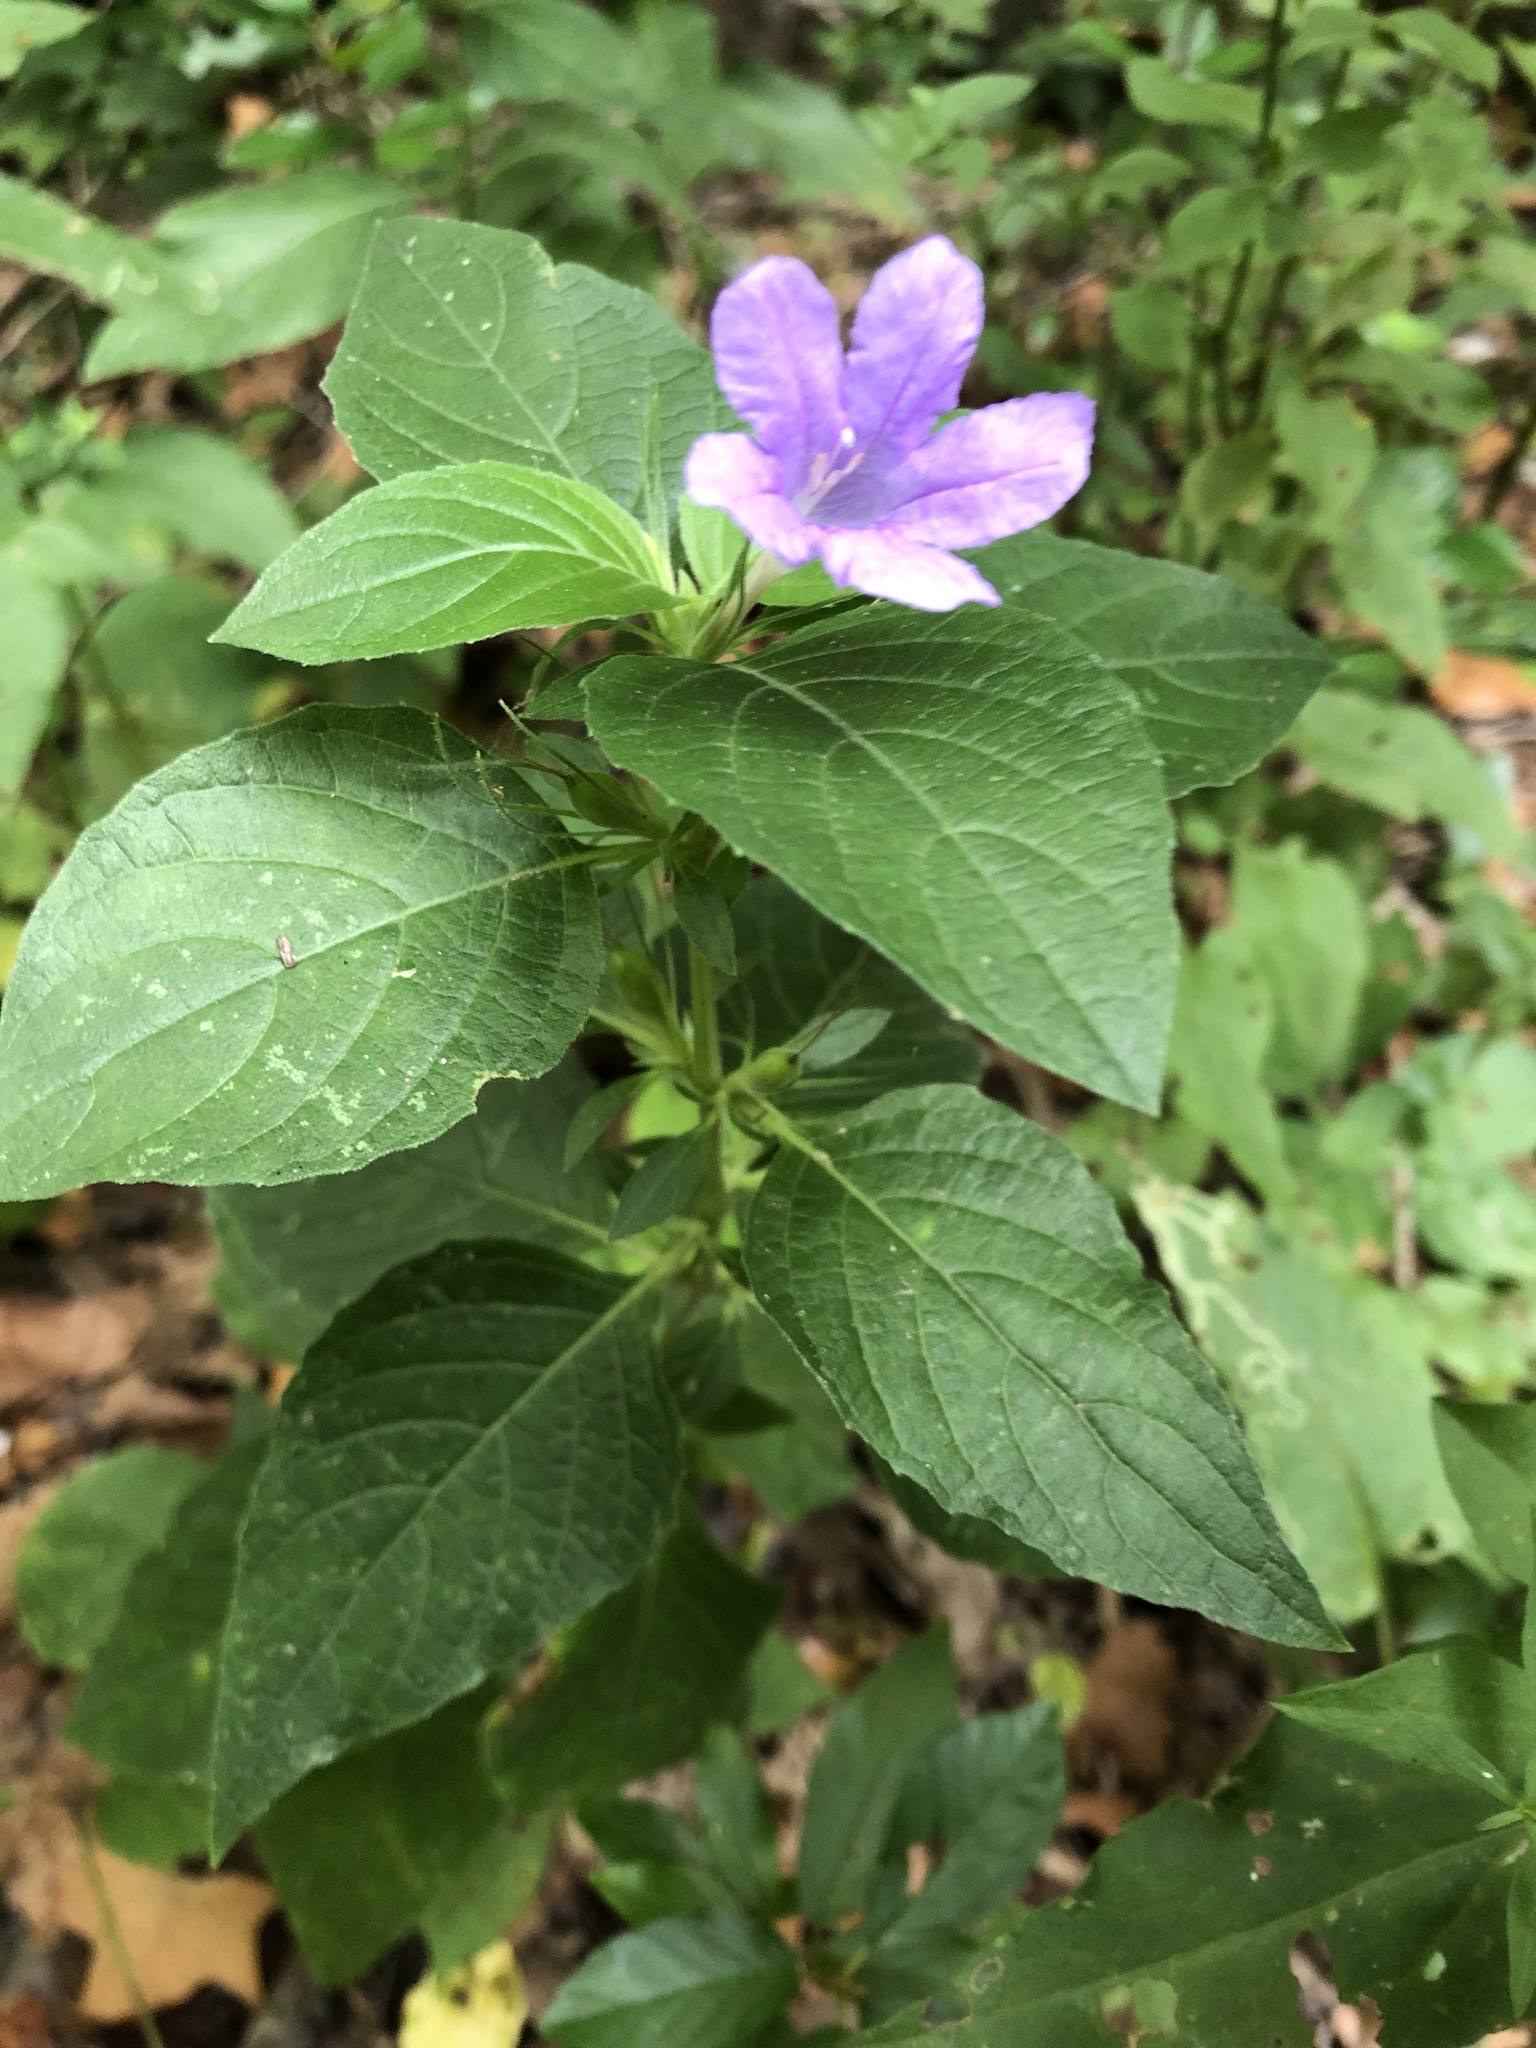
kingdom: Plantae
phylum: Tracheophyta
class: Magnoliopsida
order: Lamiales
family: Acanthaceae
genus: Ruellia
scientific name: Ruellia drummondiana
